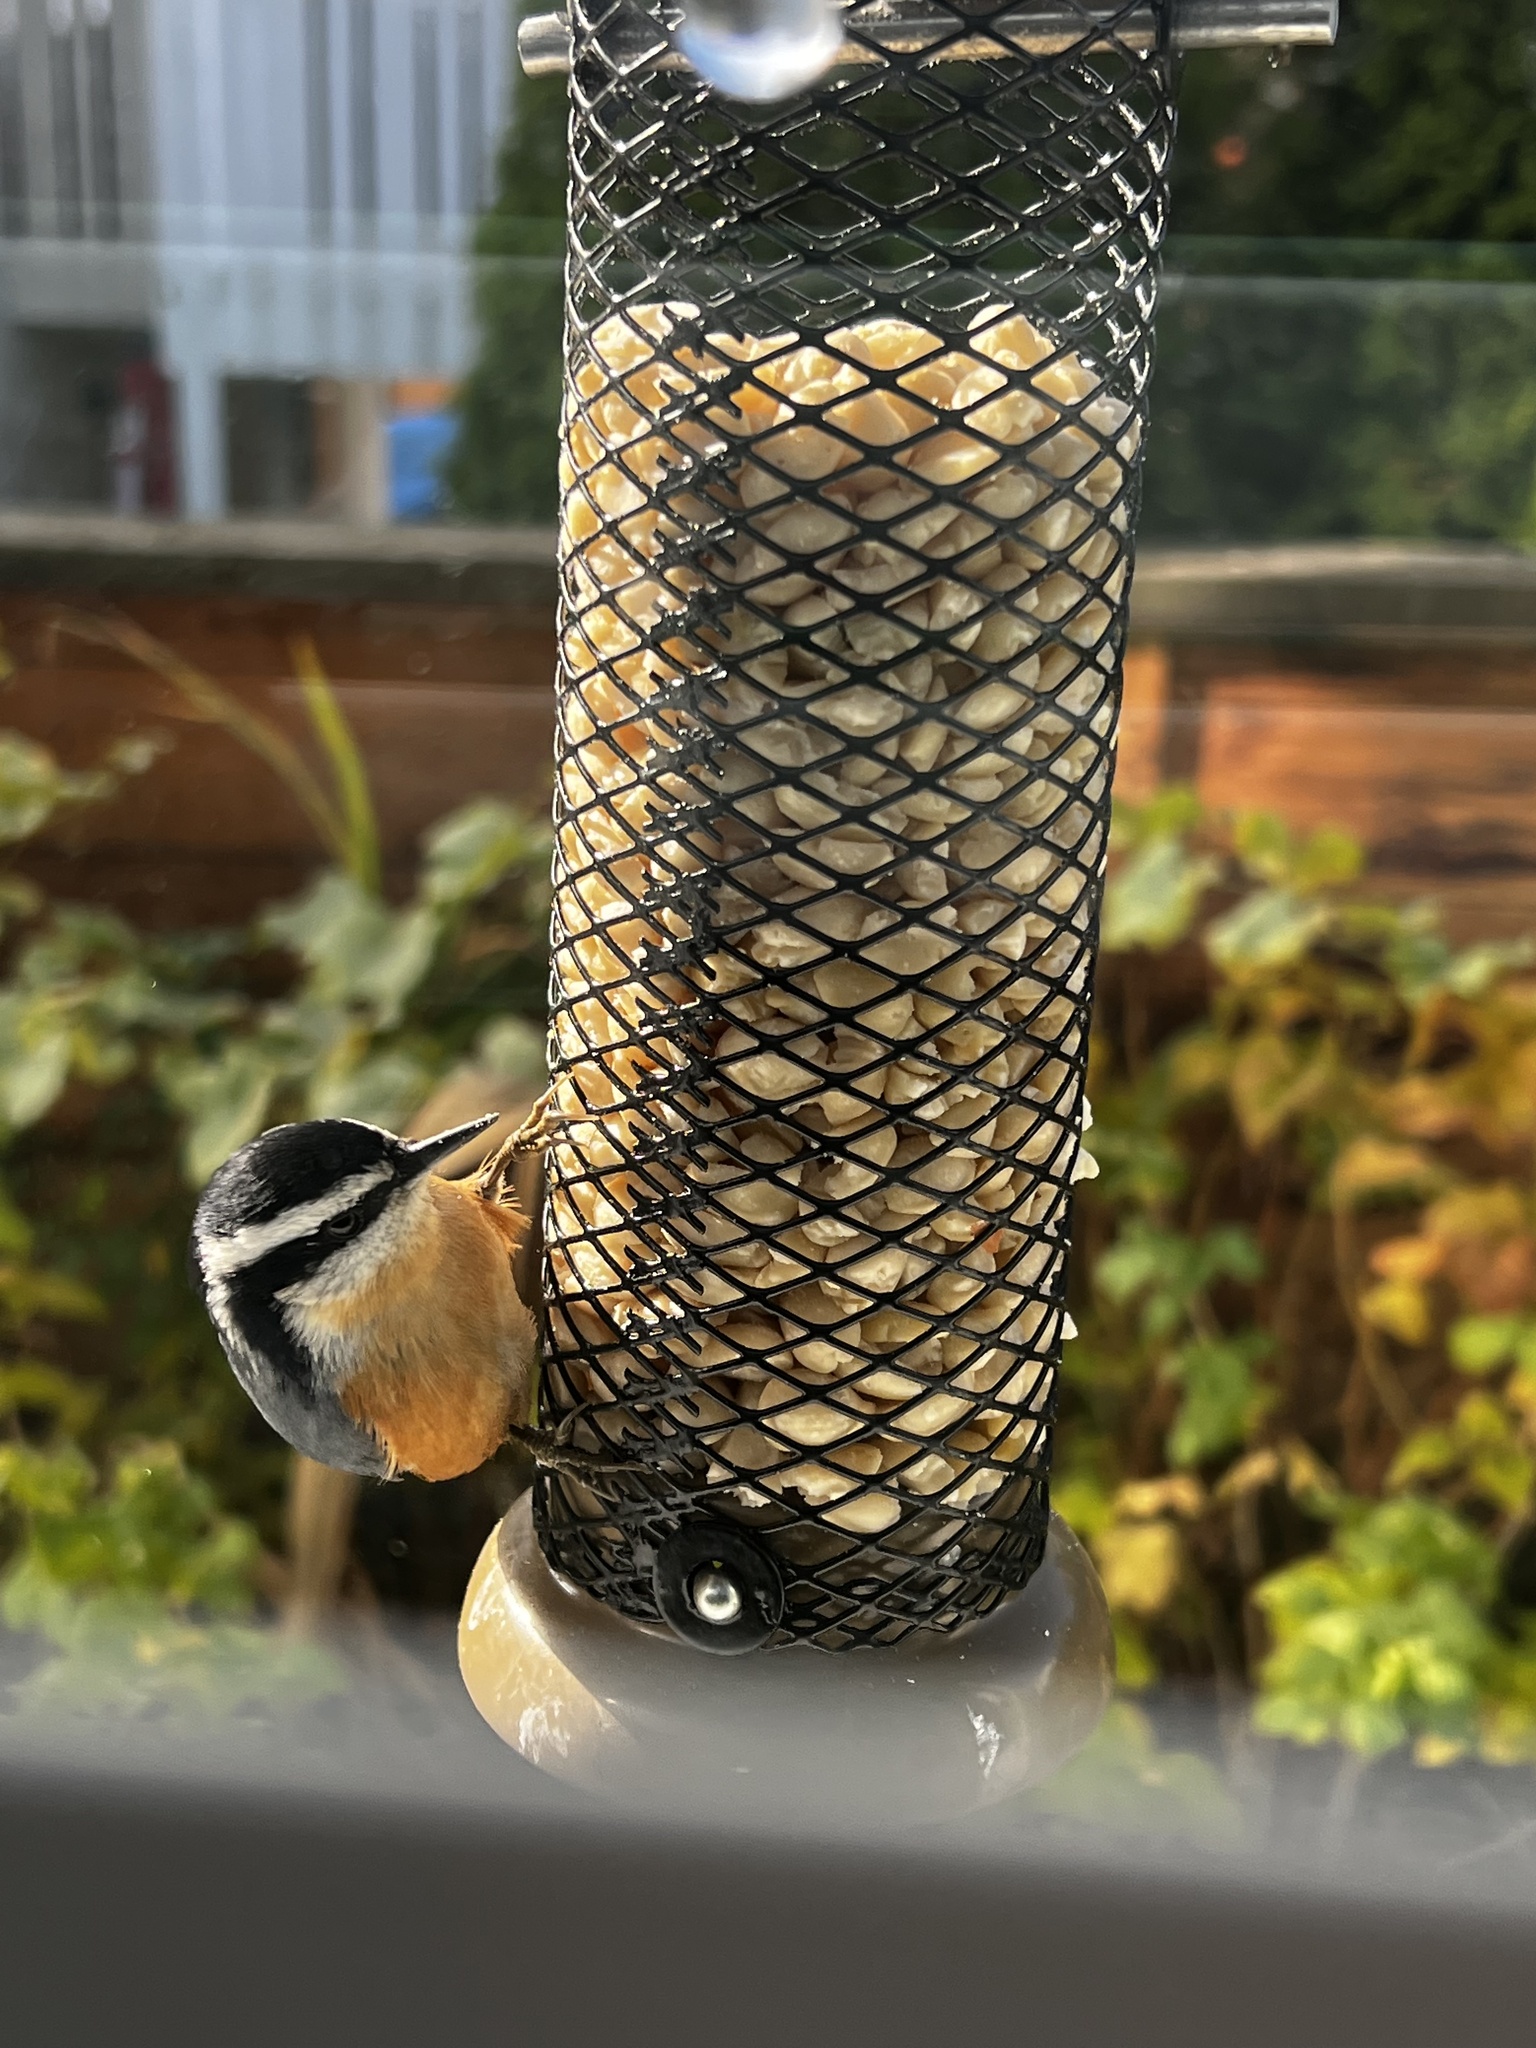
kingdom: Animalia
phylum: Chordata
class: Aves
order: Passeriformes
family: Sittidae
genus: Sitta
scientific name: Sitta canadensis
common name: Red-breasted nuthatch
